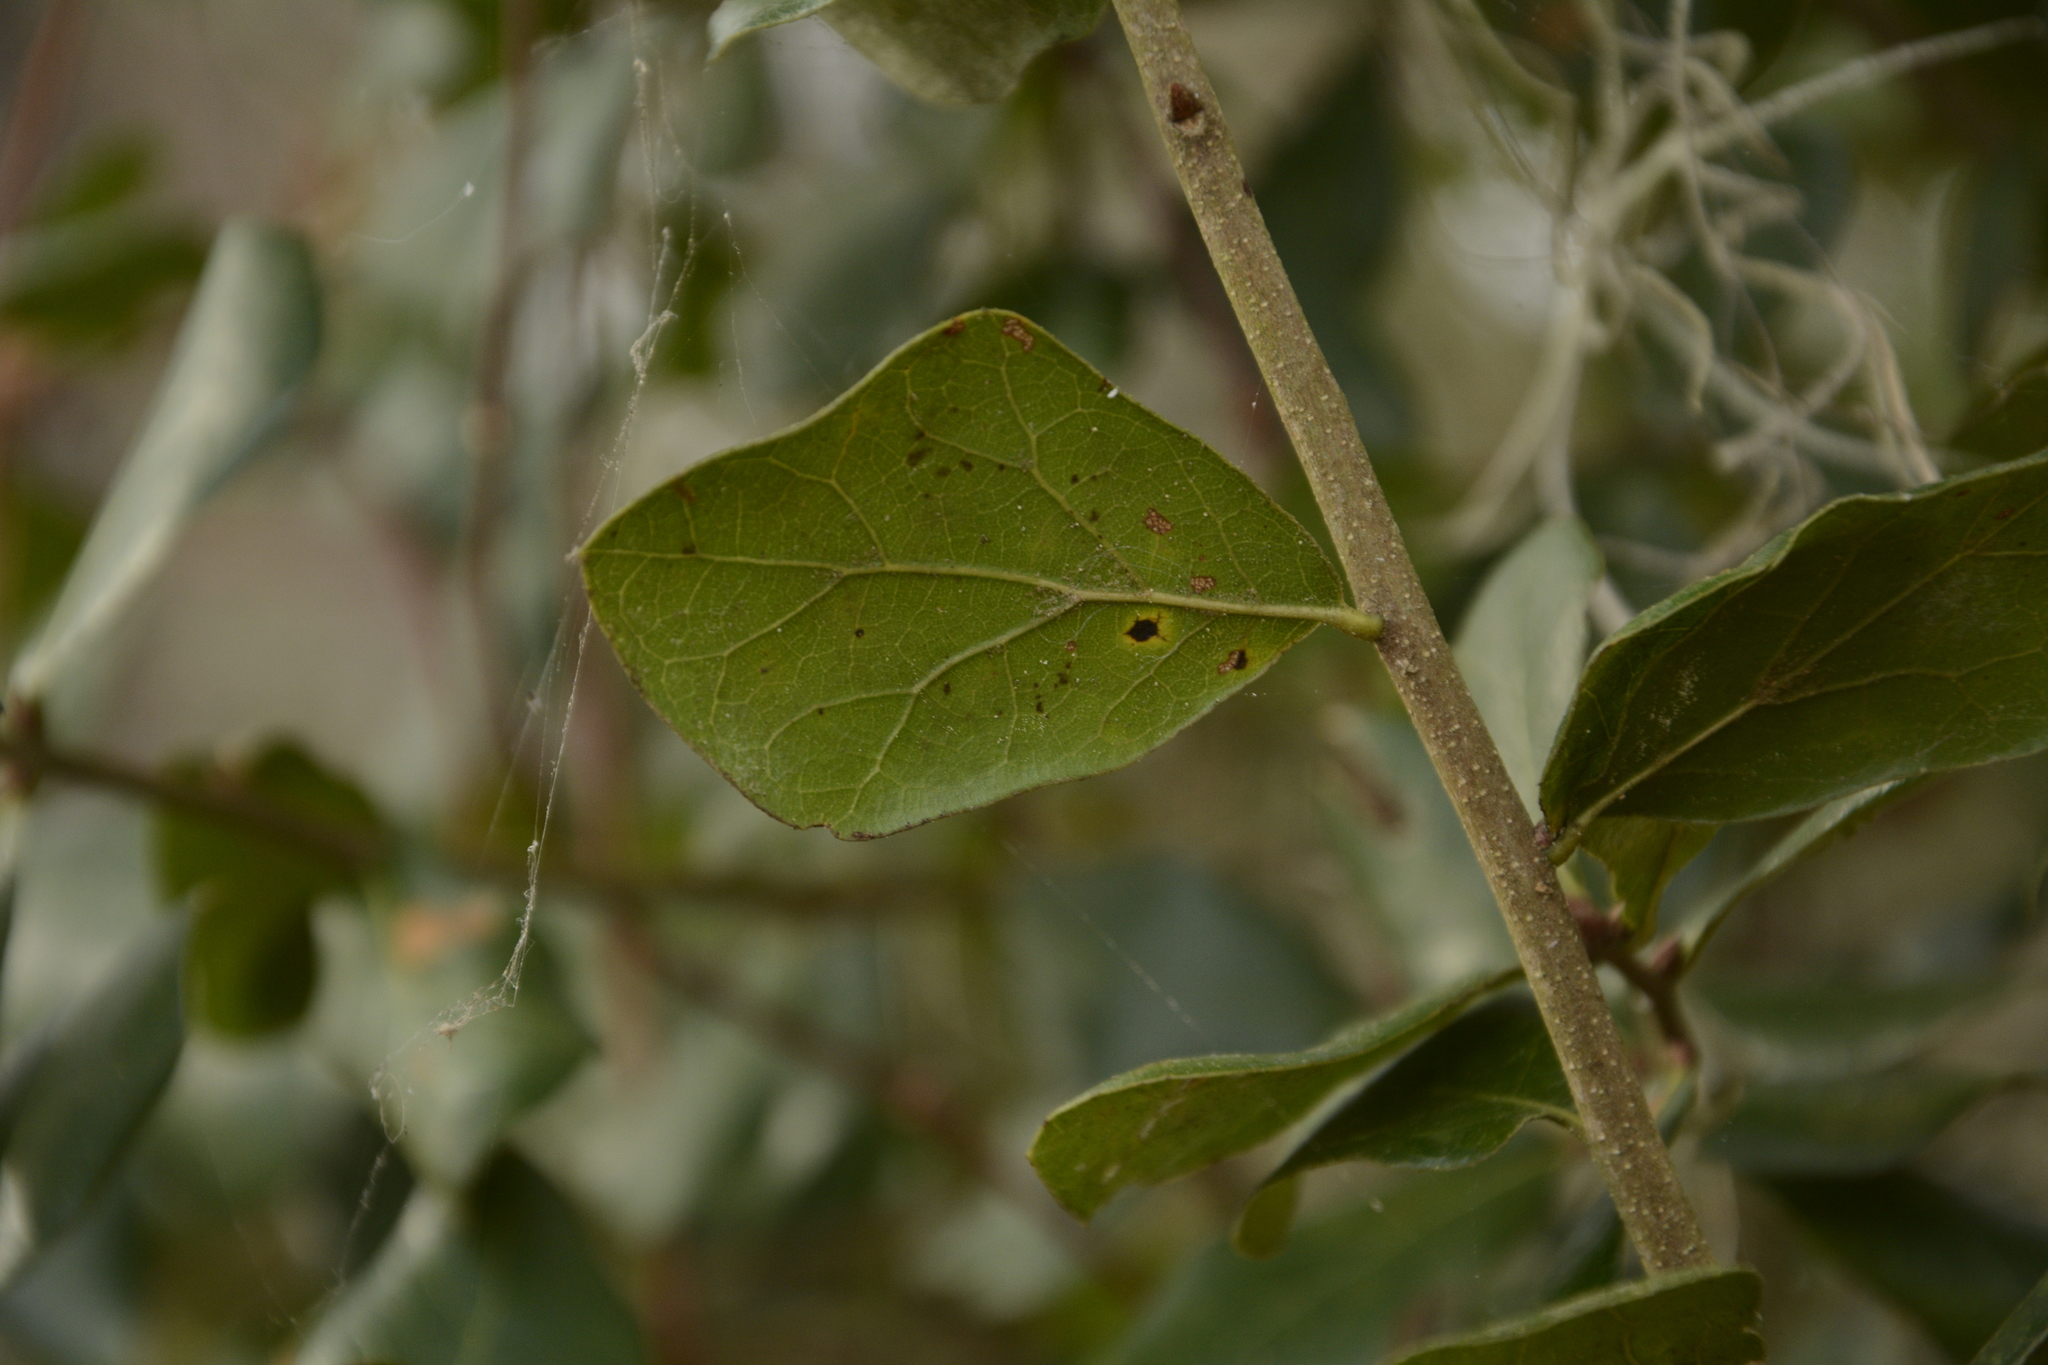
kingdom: Plantae
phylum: Tracheophyta
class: Magnoliopsida
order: Fagales
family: Fagaceae
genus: Quercus
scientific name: Quercus myrtifolia
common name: Myrtle oak
